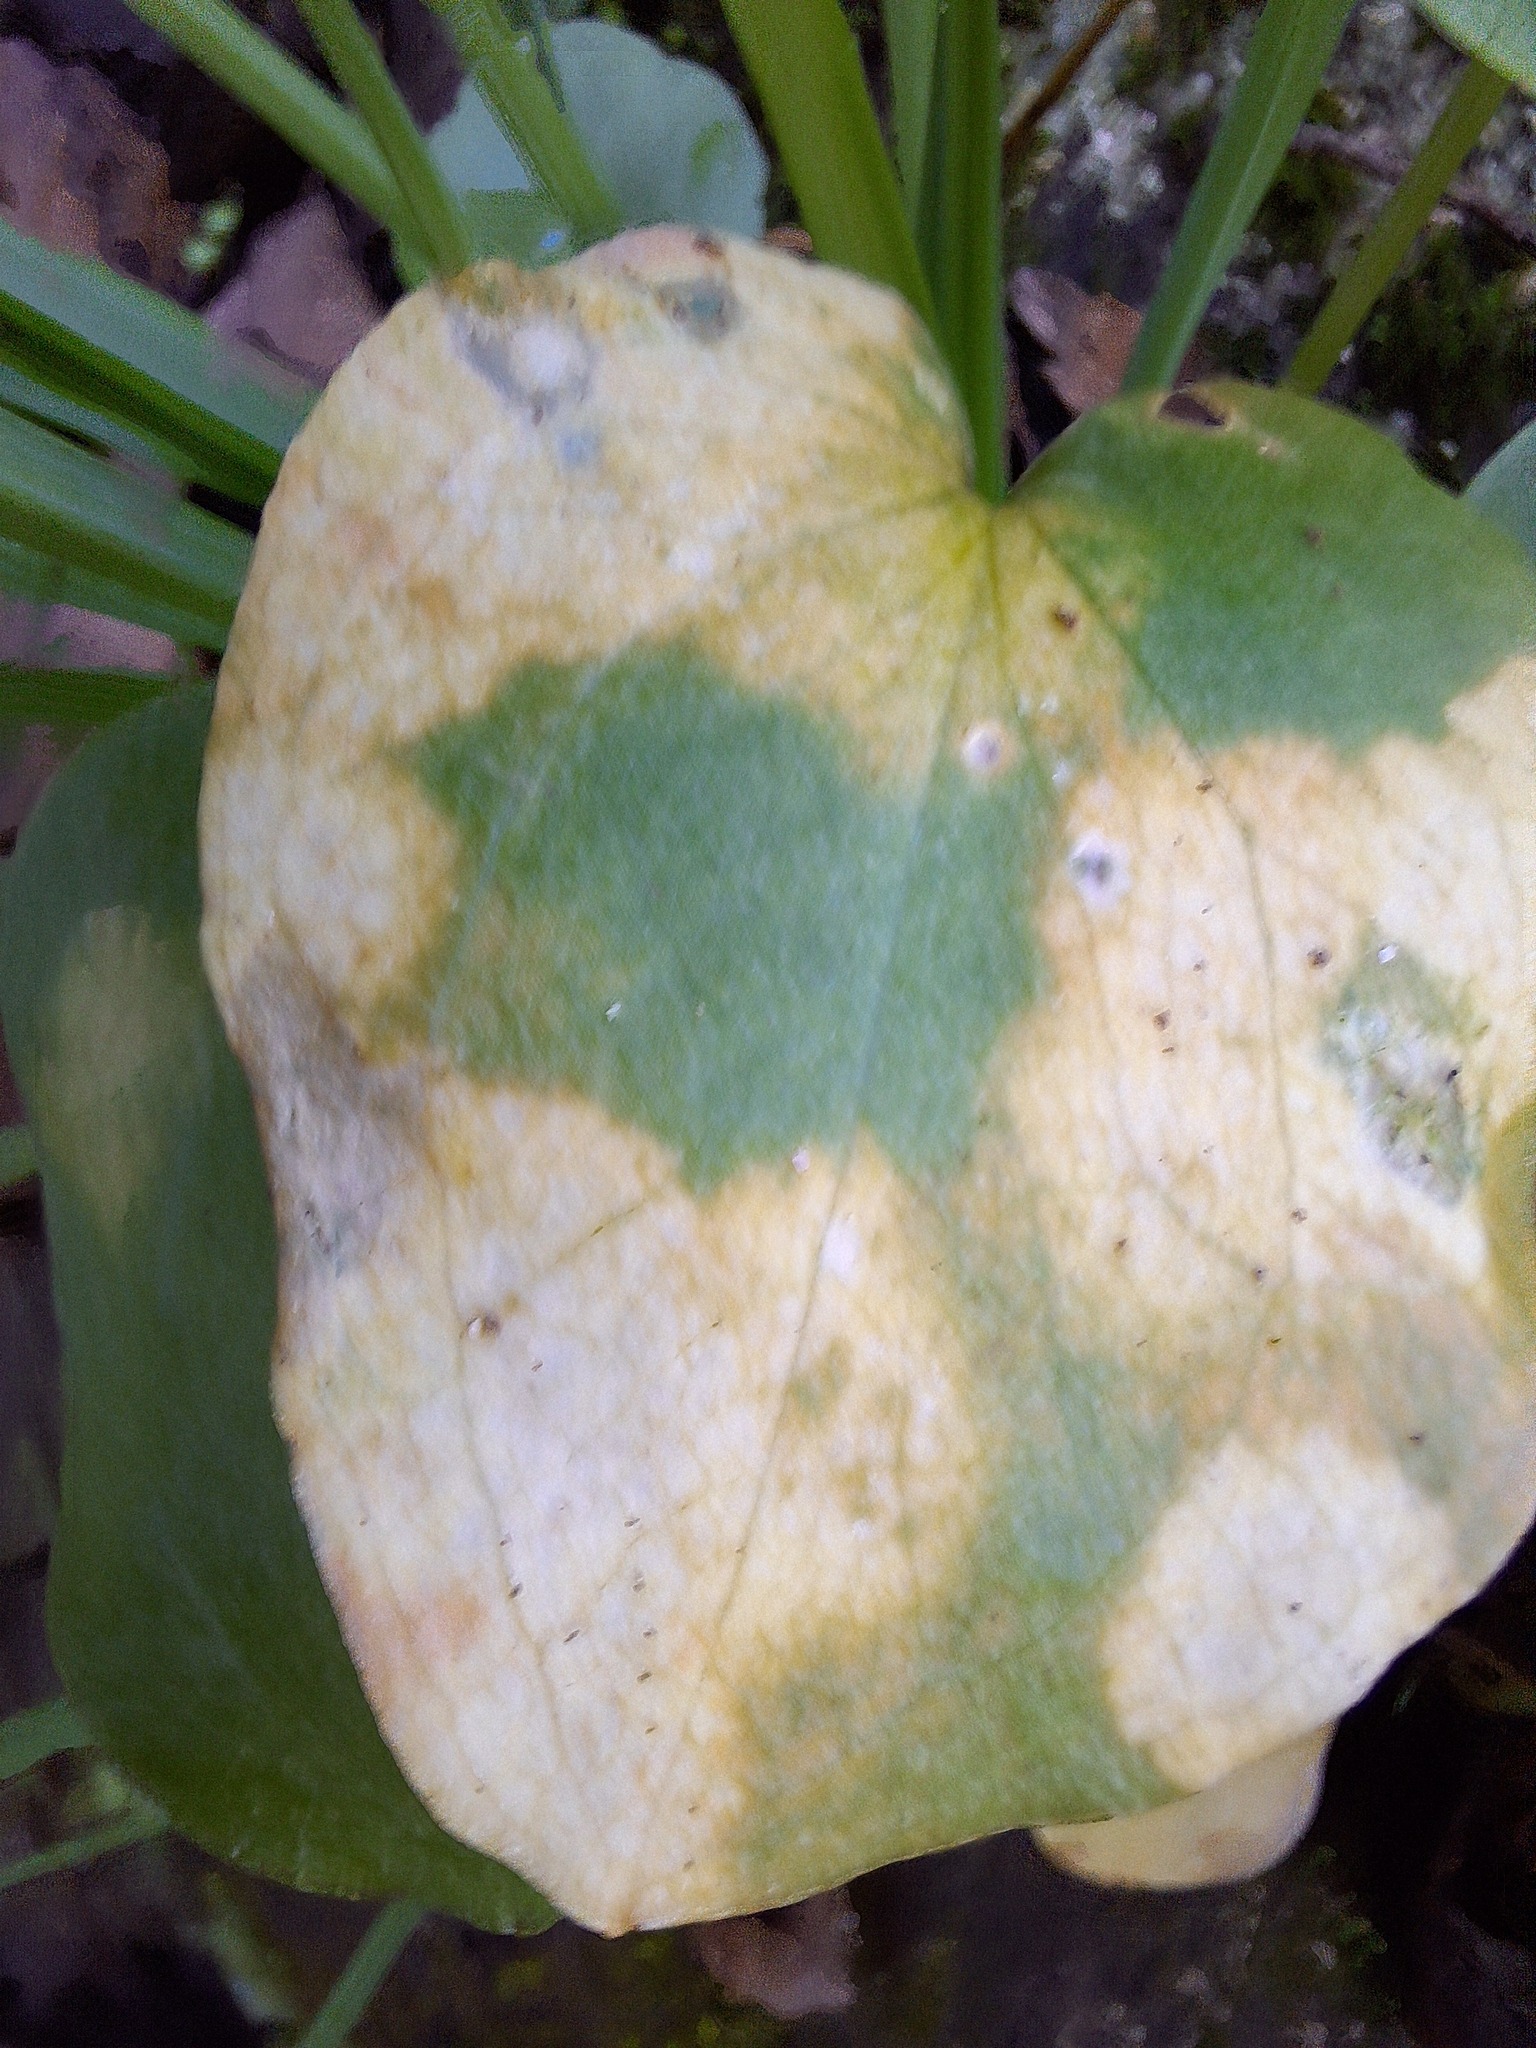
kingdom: Chromista
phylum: Ochrophyta
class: Xanthophyceae
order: Phyllosiphonales
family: Phyllosiphonaceae
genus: Phyllosiphon
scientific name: Phyllosiphon arisari
